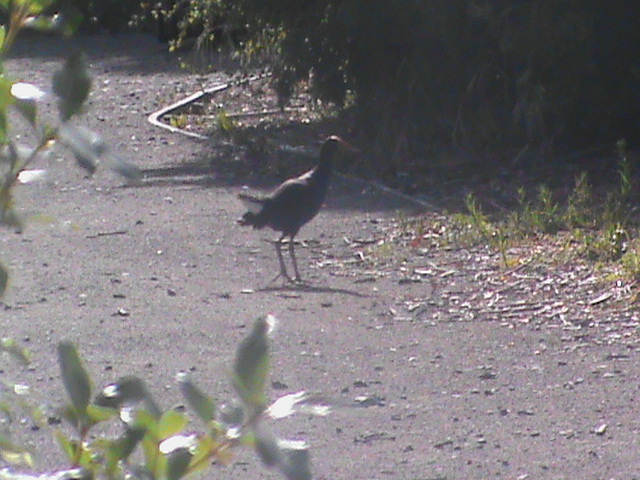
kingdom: Animalia
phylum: Chordata
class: Aves
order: Gruiformes
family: Rallidae
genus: Porphyrio
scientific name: Porphyrio melanotus
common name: Australasian swamphen
